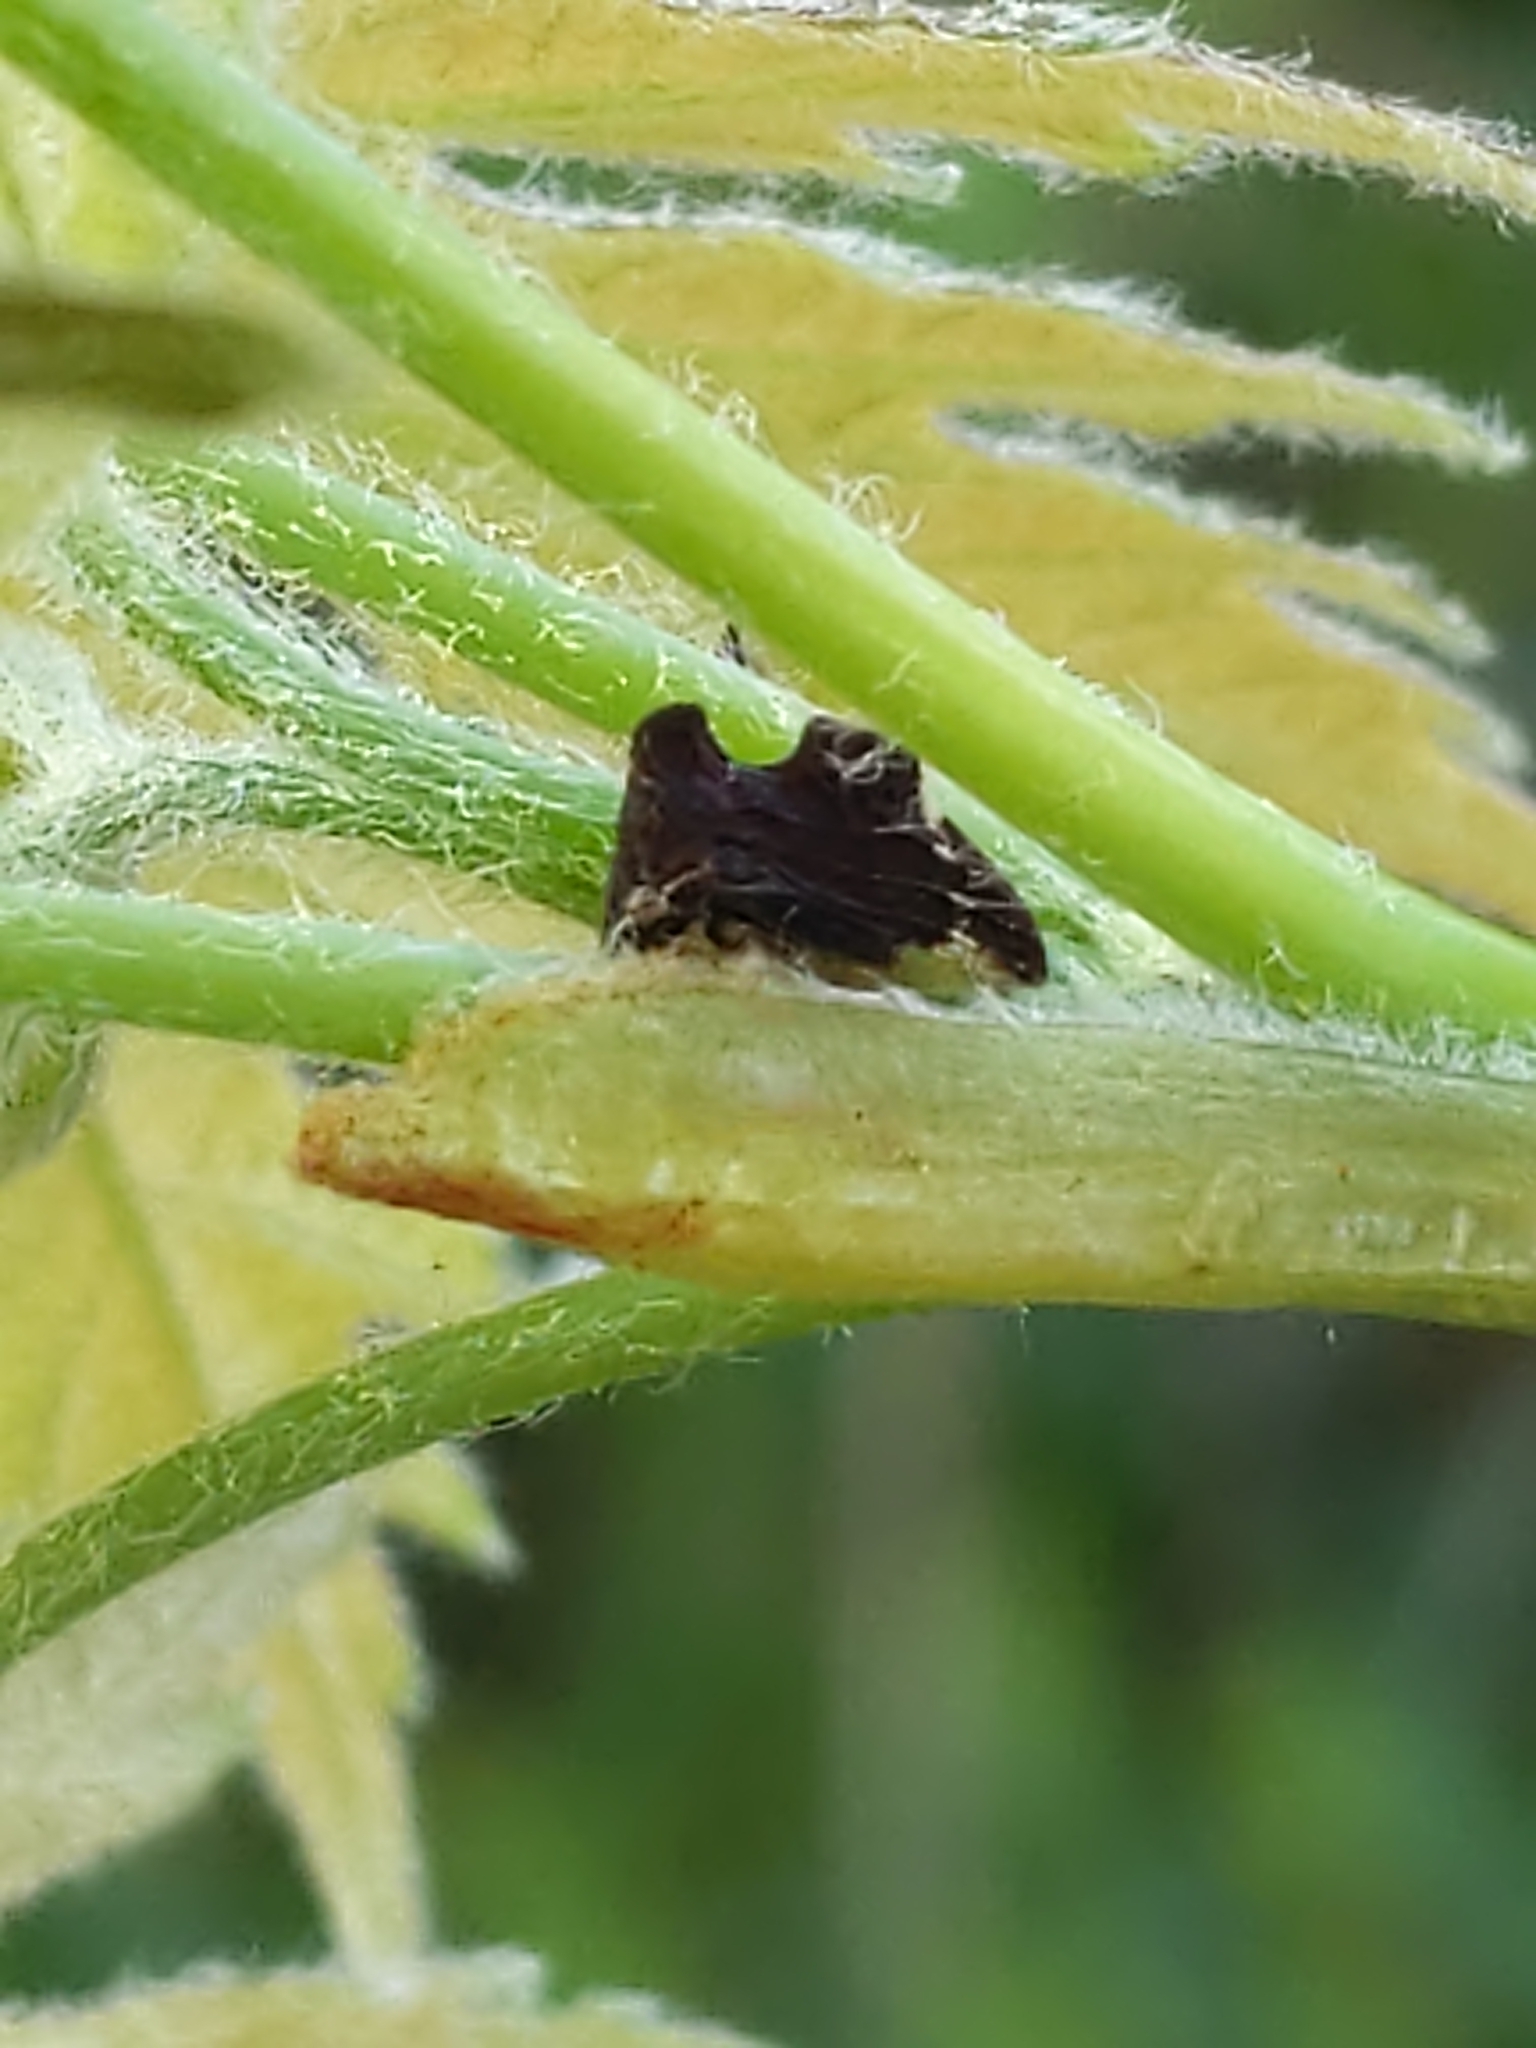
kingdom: Animalia
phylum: Arthropoda
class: Insecta
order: Hemiptera
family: Membracidae
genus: Entylia
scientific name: Entylia carinata
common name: Keeled treehopper
